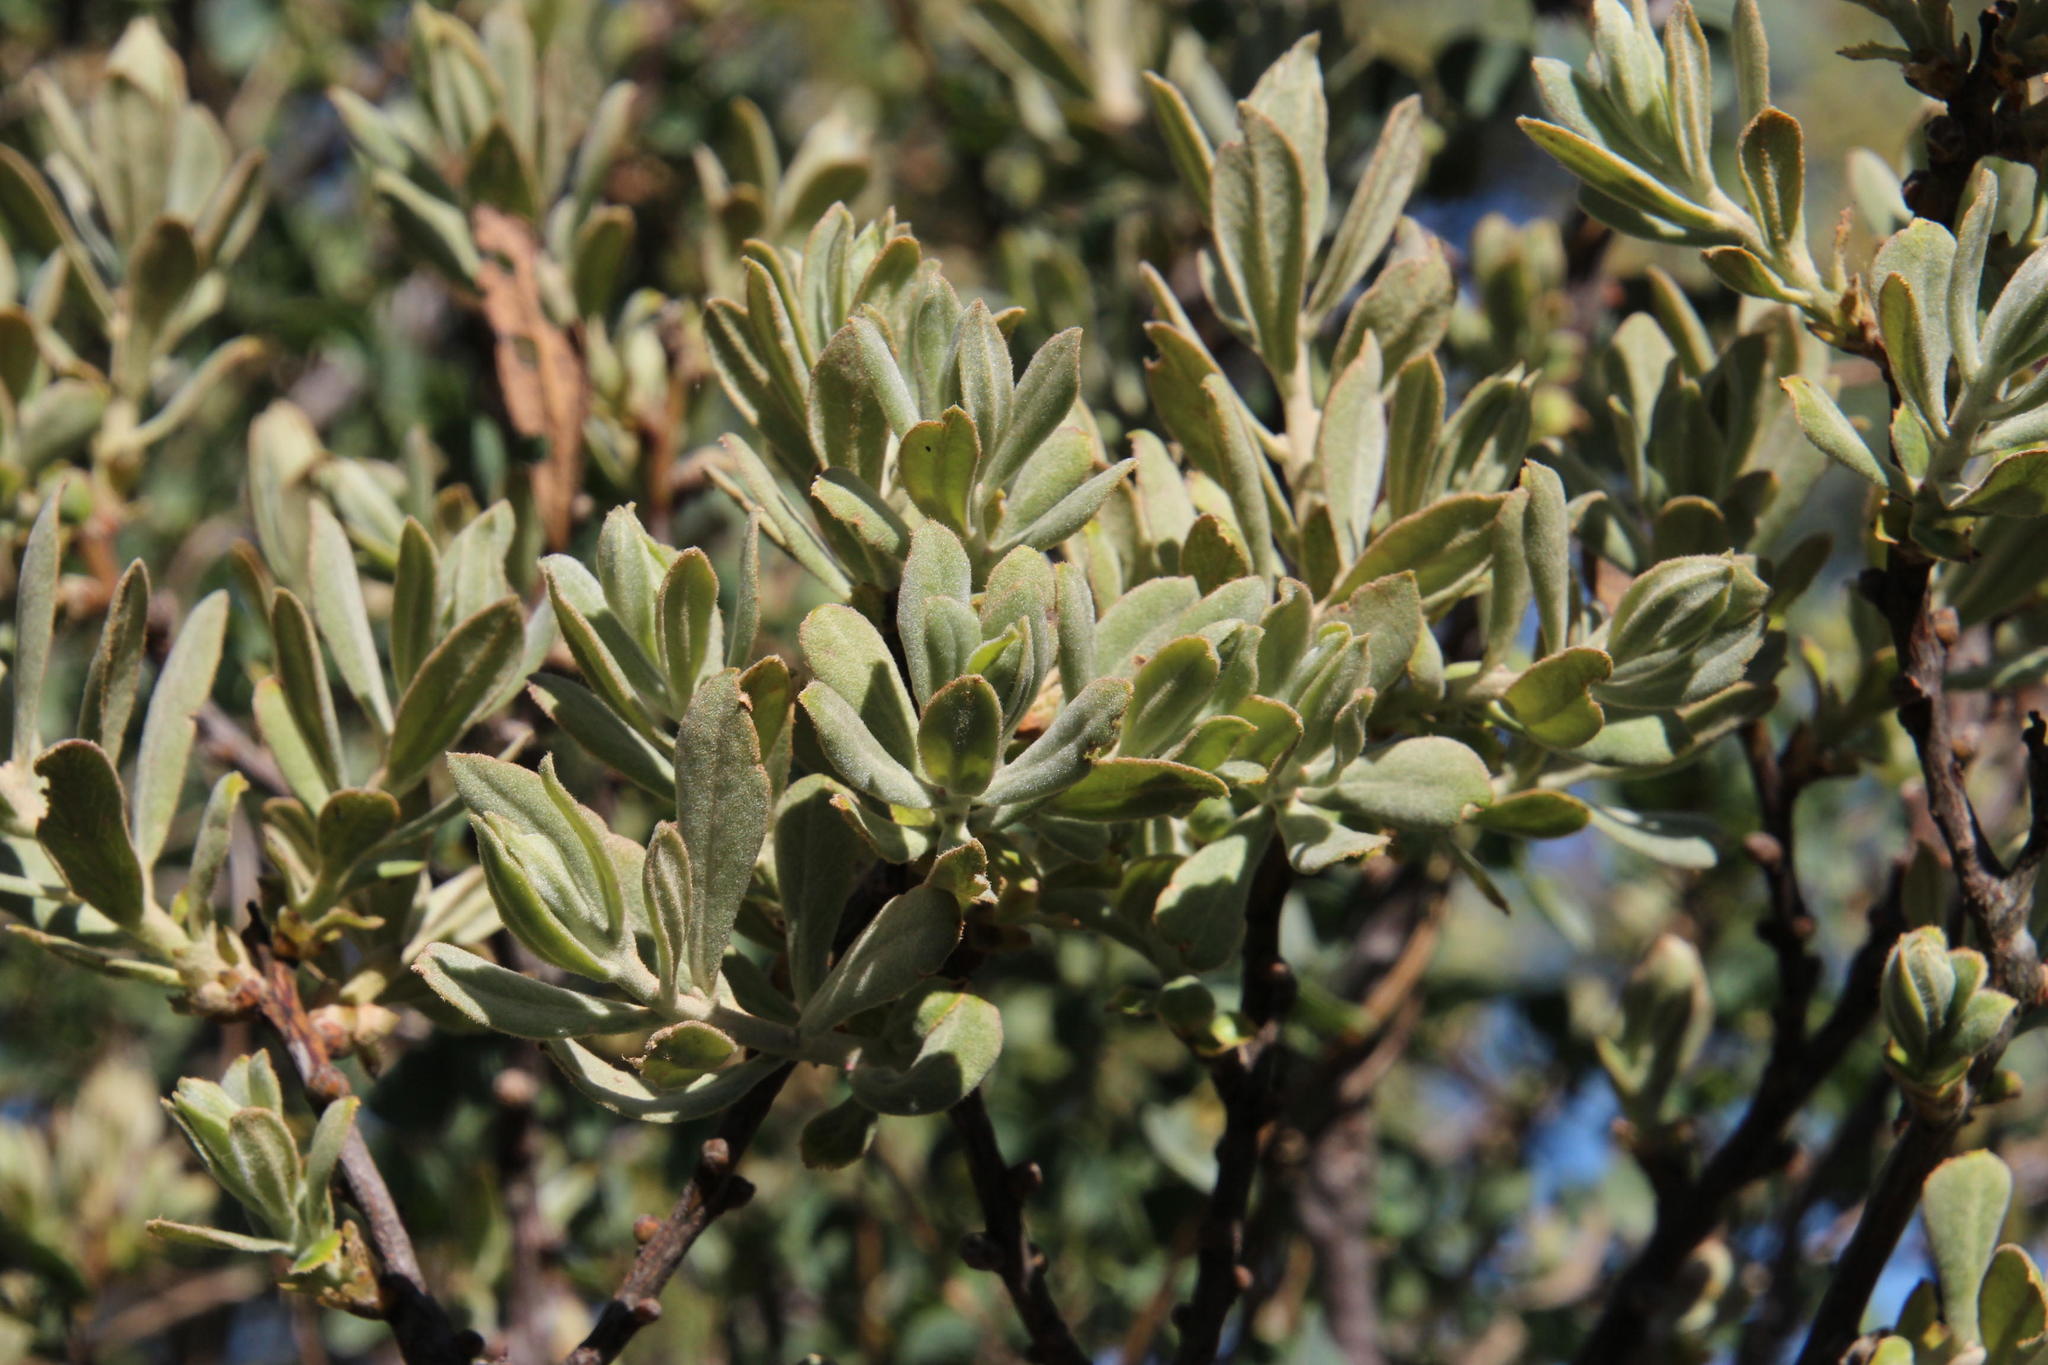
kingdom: Plantae
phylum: Tracheophyta
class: Magnoliopsida
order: Malpighiales
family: Peraceae
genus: Clutia
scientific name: Clutia pubescens
